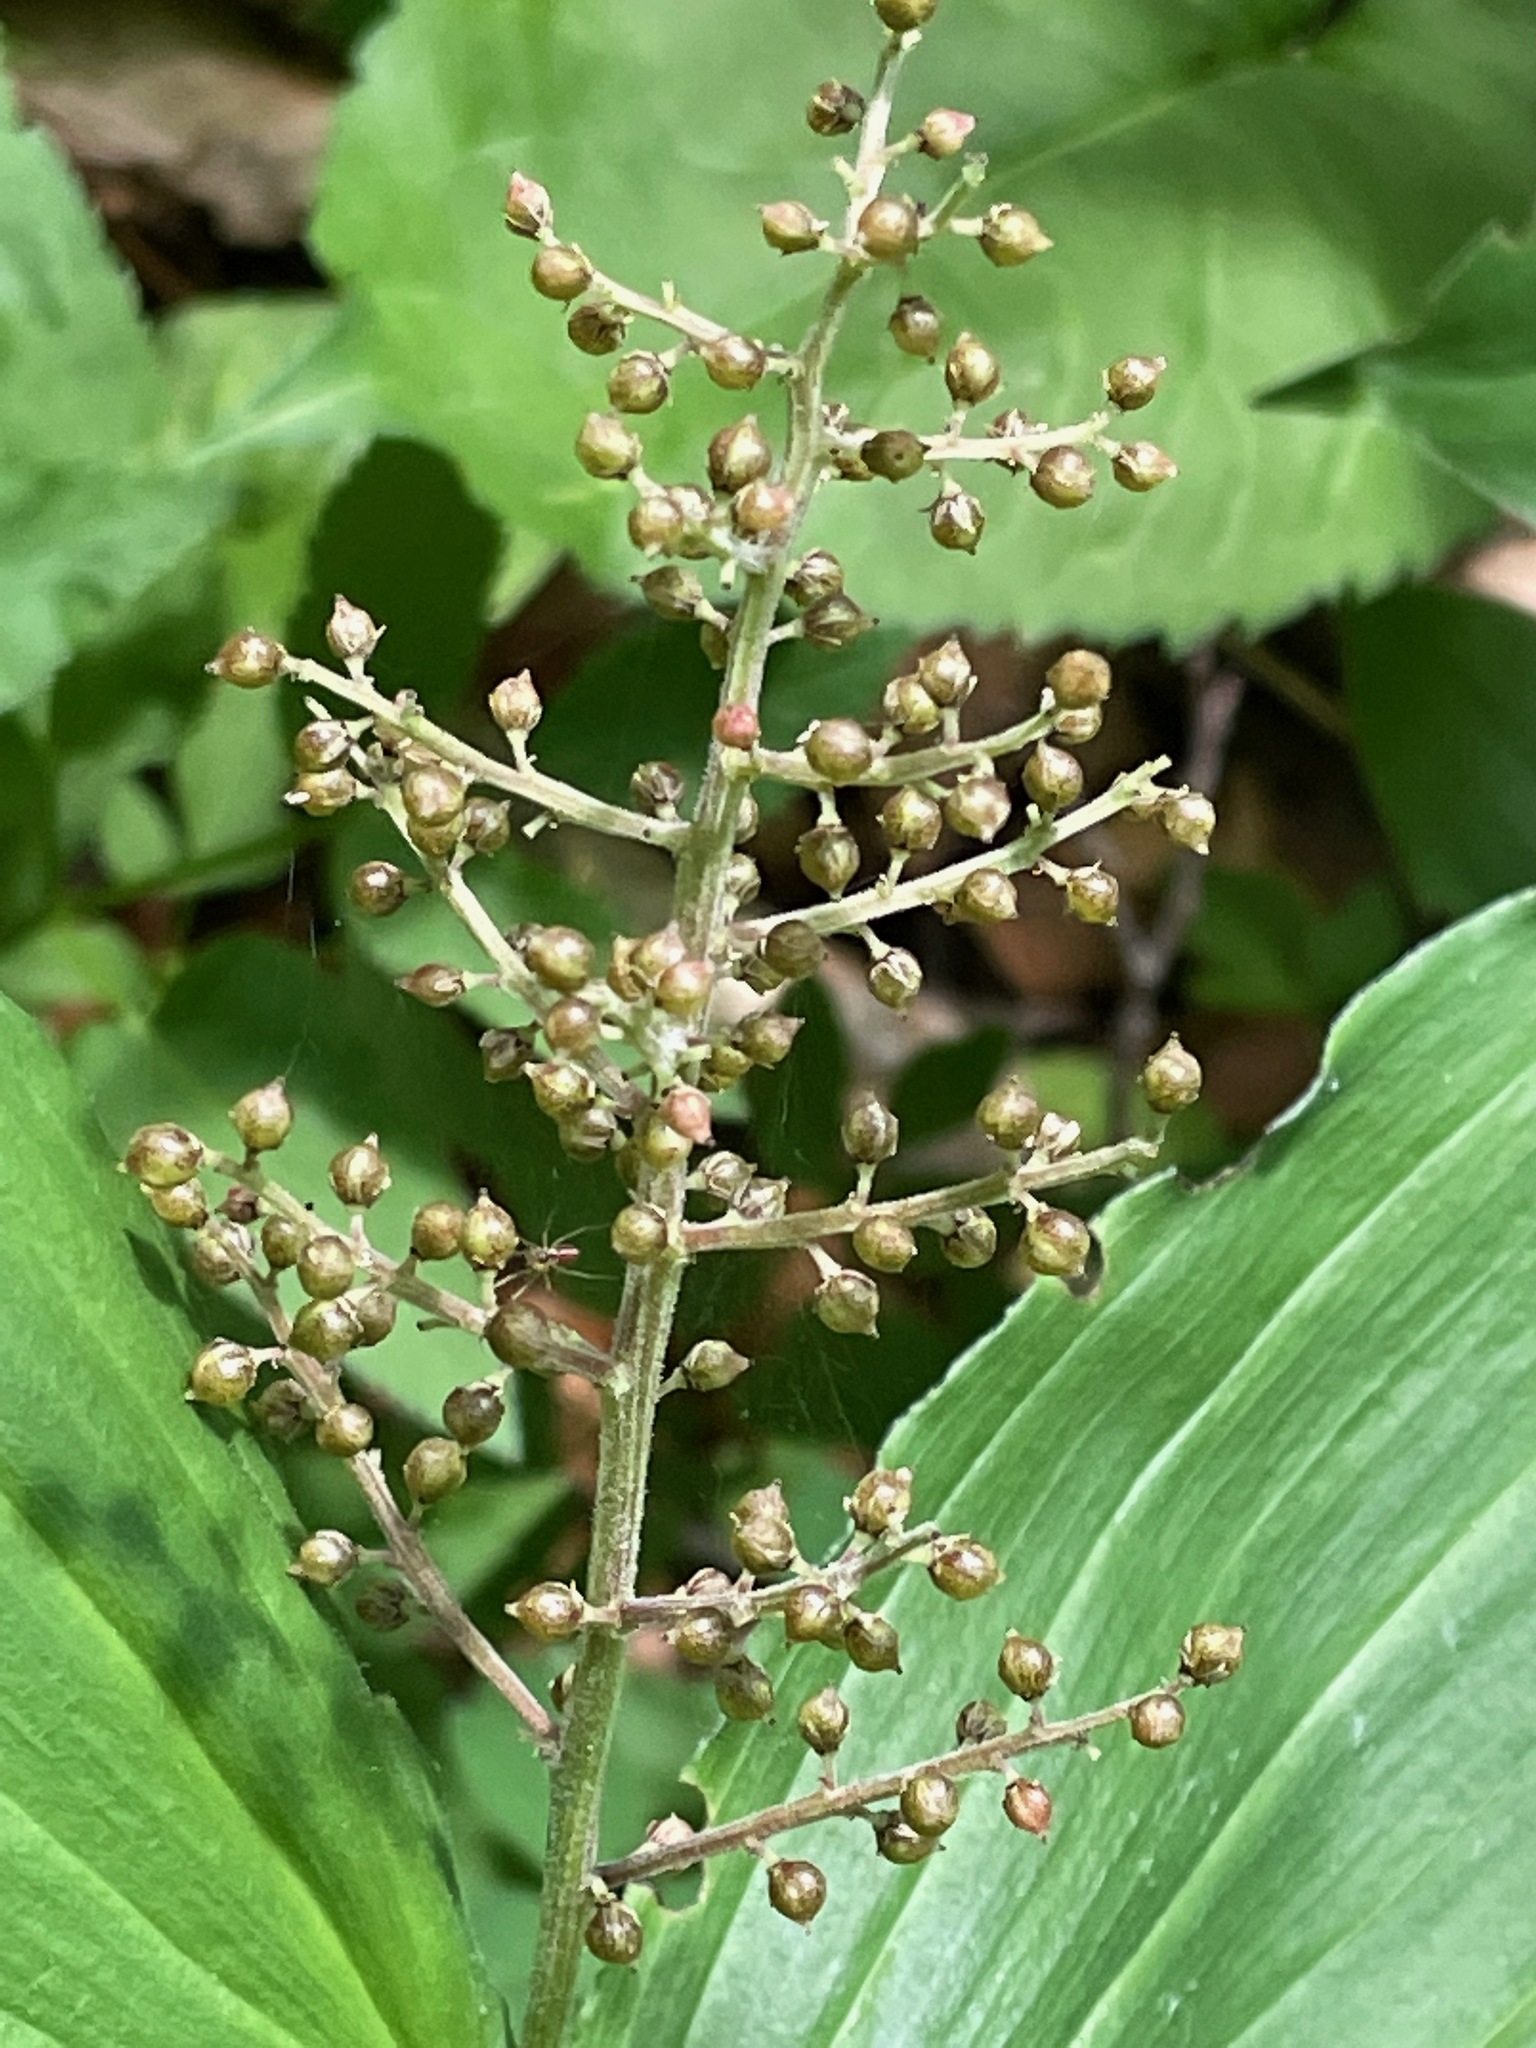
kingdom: Plantae
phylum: Tracheophyta
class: Liliopsida
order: Asparagales
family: Asparagaceae
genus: Maianthemum
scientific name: Maianthemum racemosum
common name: False spikenard
